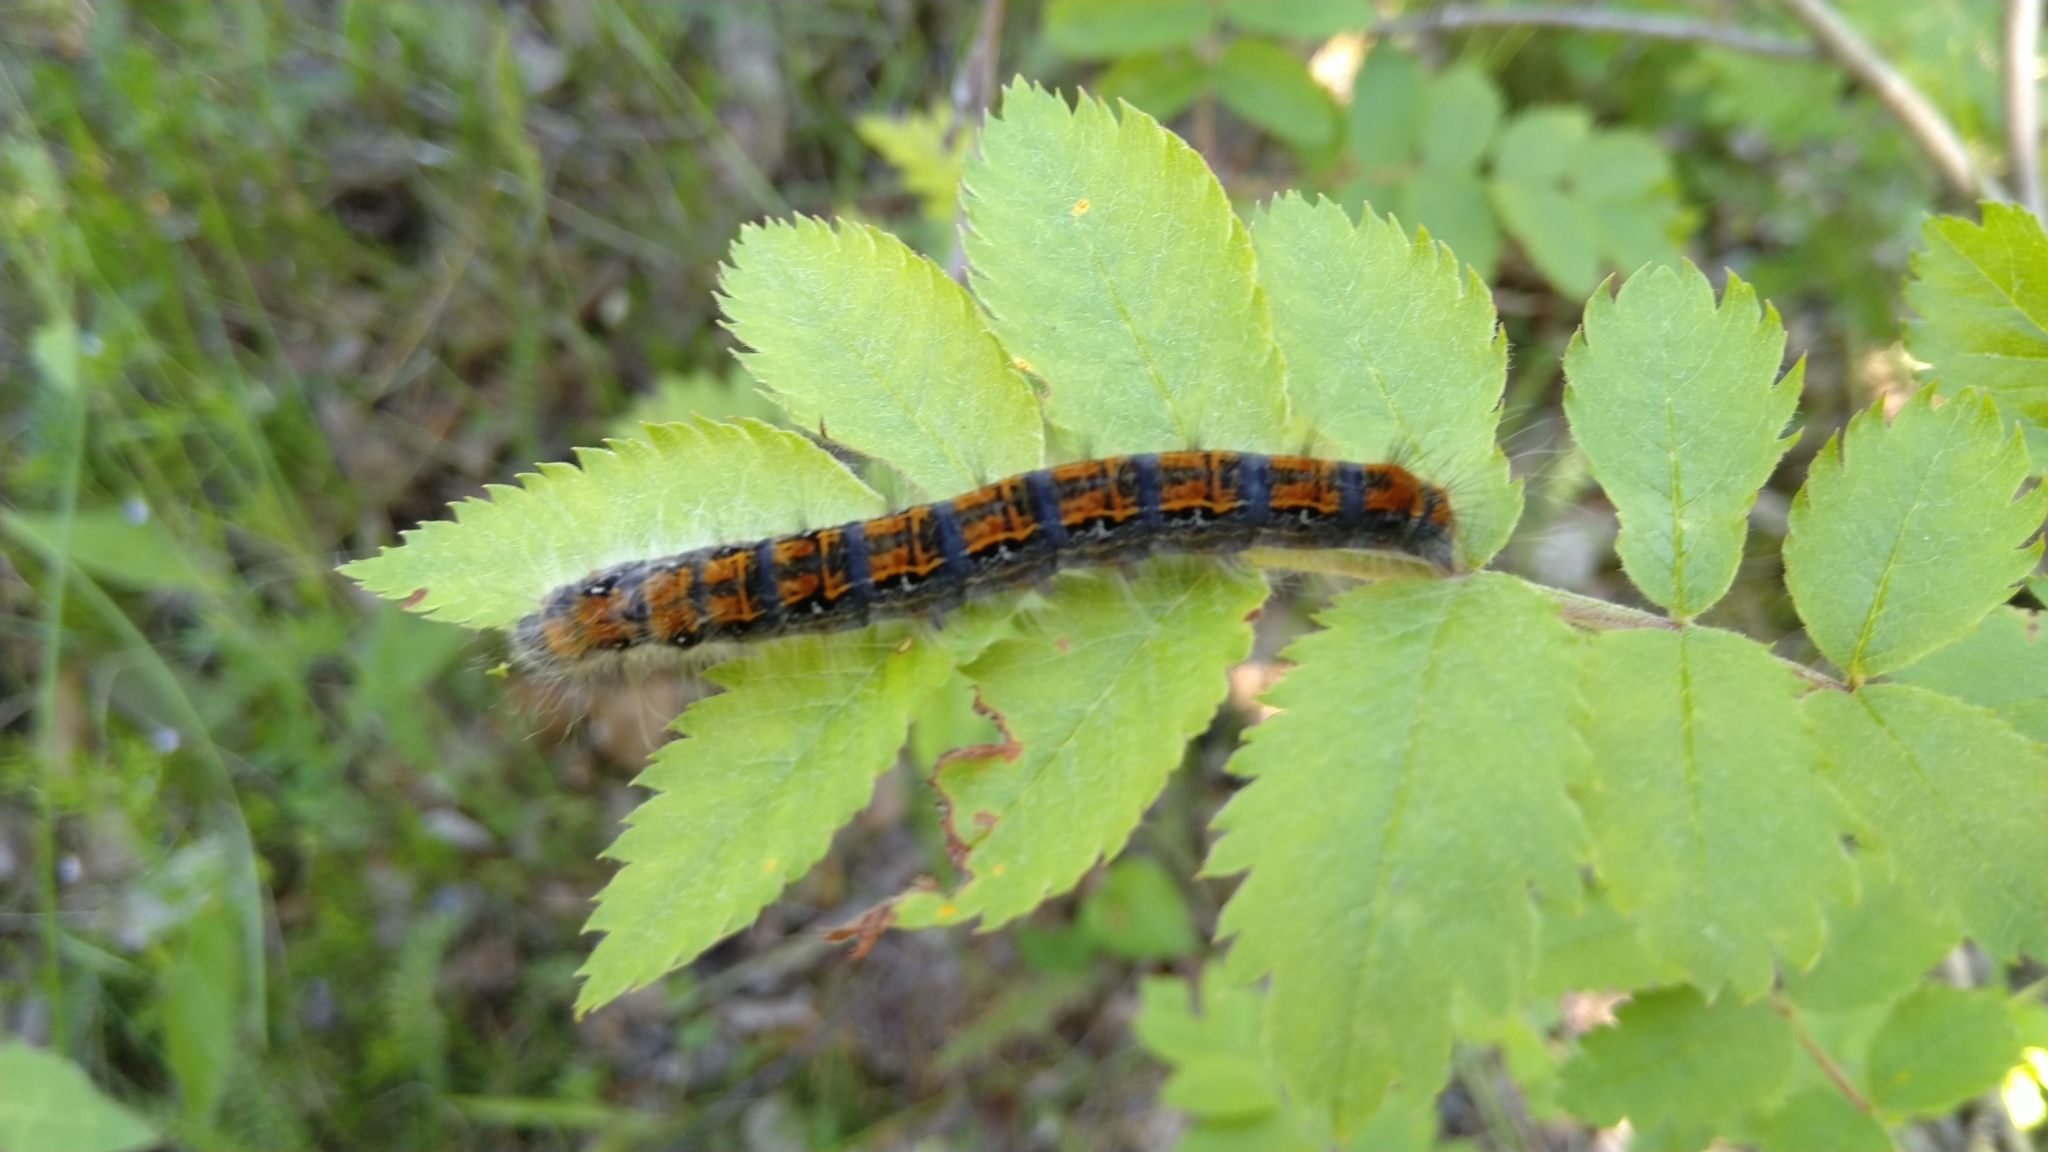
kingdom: Animalia
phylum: Arthropoda
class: Insecta
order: Lepidoptera
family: Lasiocampidae
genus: Trichiura
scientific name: Trichiura crataegi
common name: Pale eggar
